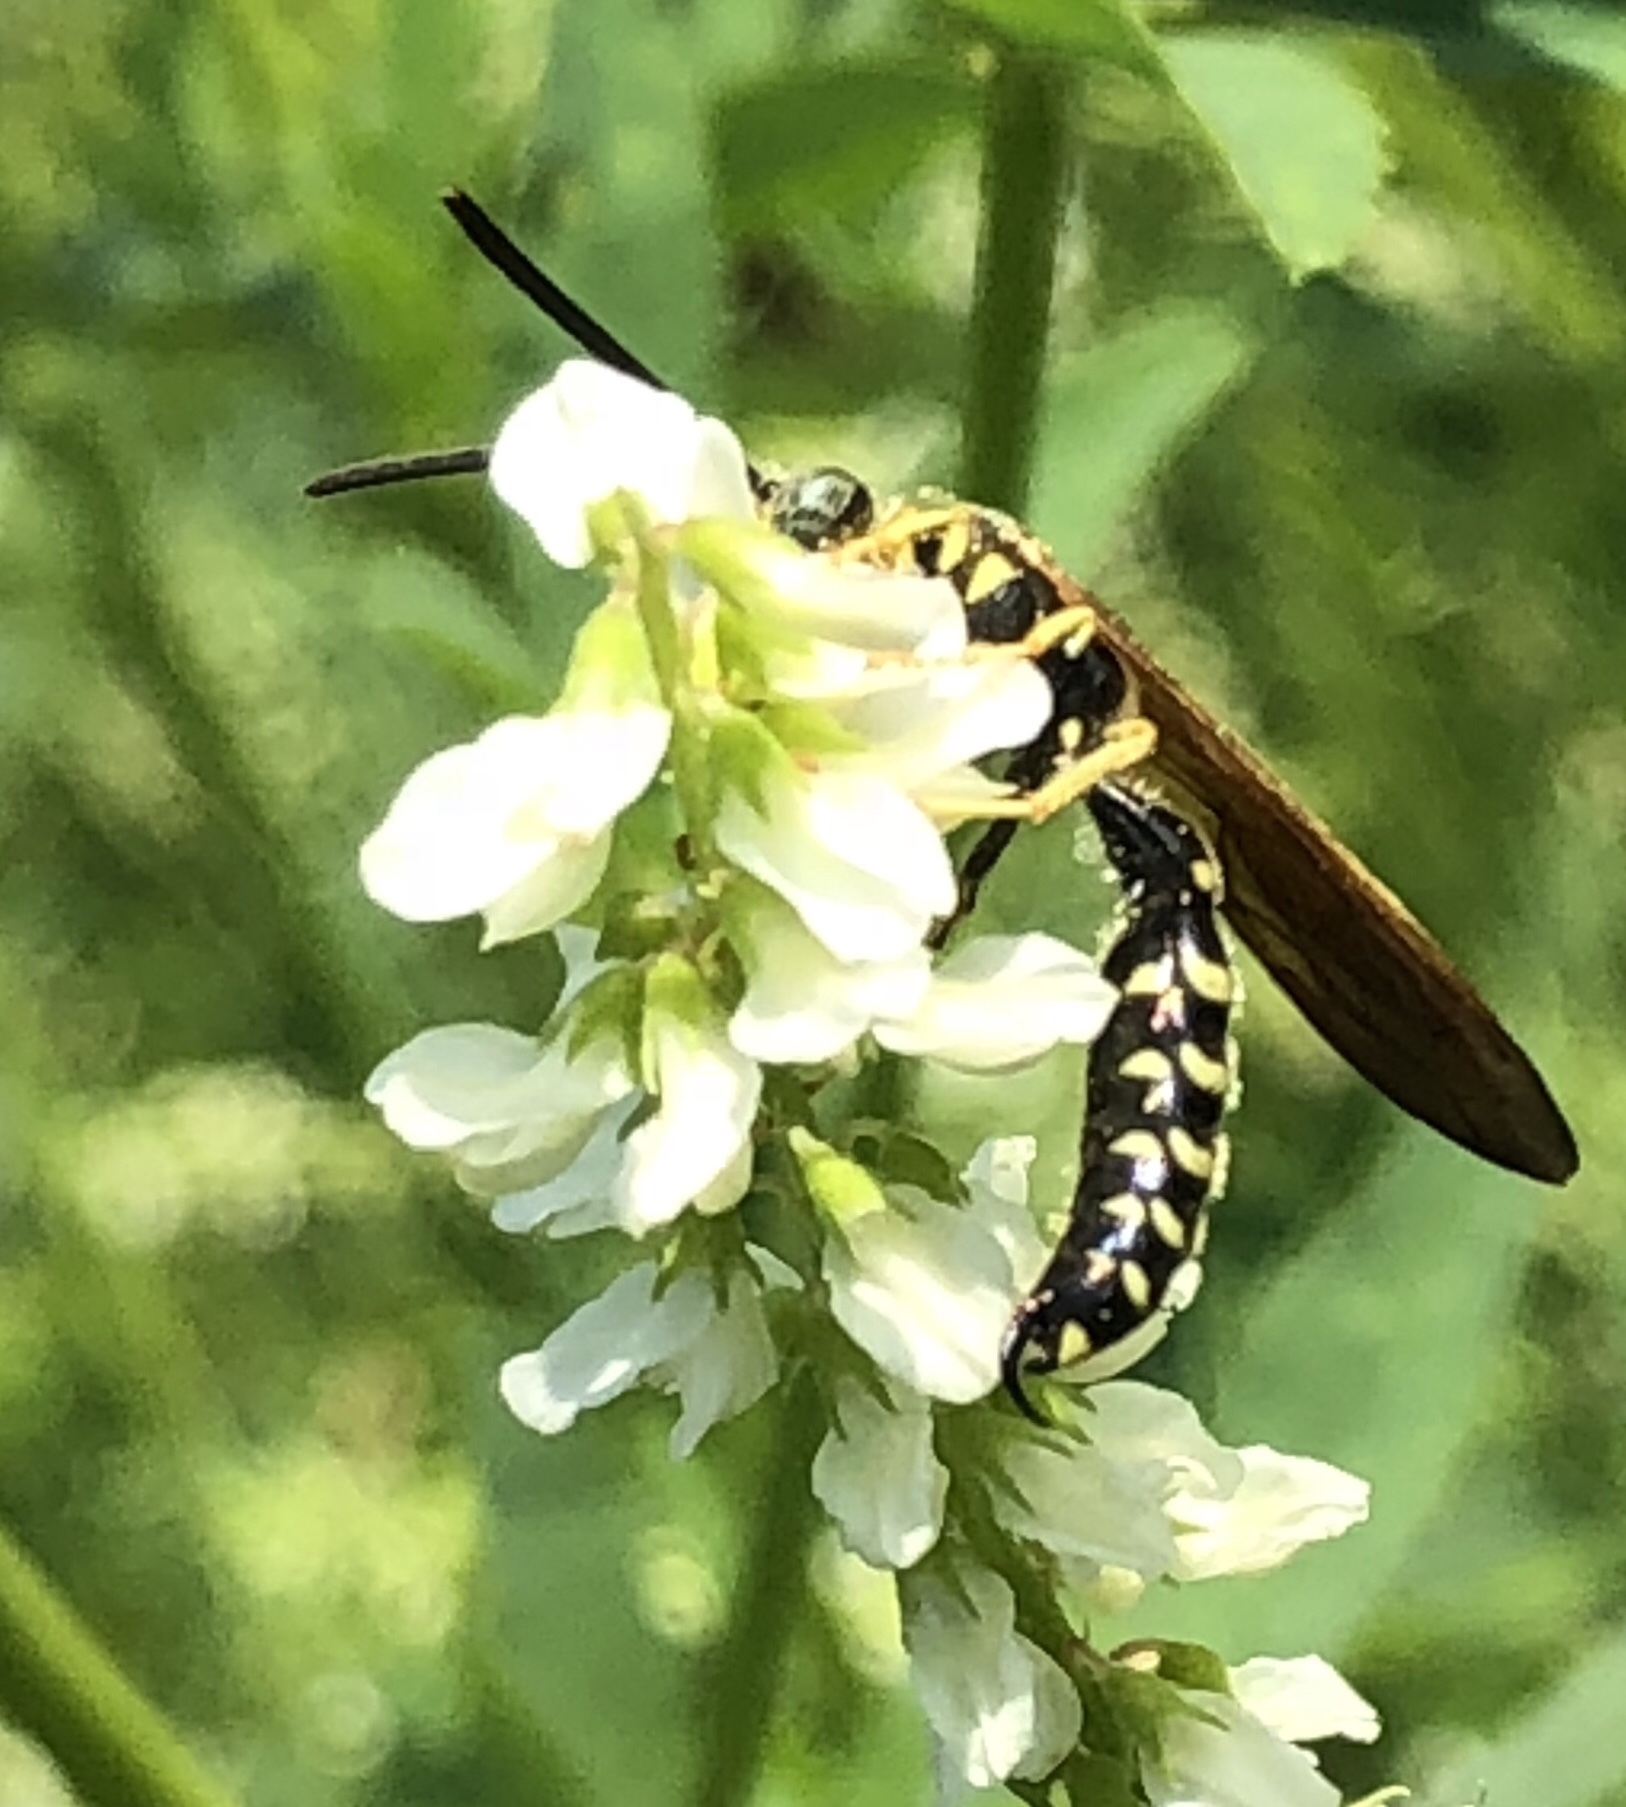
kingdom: Animalia
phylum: Arthropoda
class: Insecta
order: Hymenoptera
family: Tiphiidae
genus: Myzinum
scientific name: Myzinum quinquecinctum
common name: Five-banded thynnid wasp
